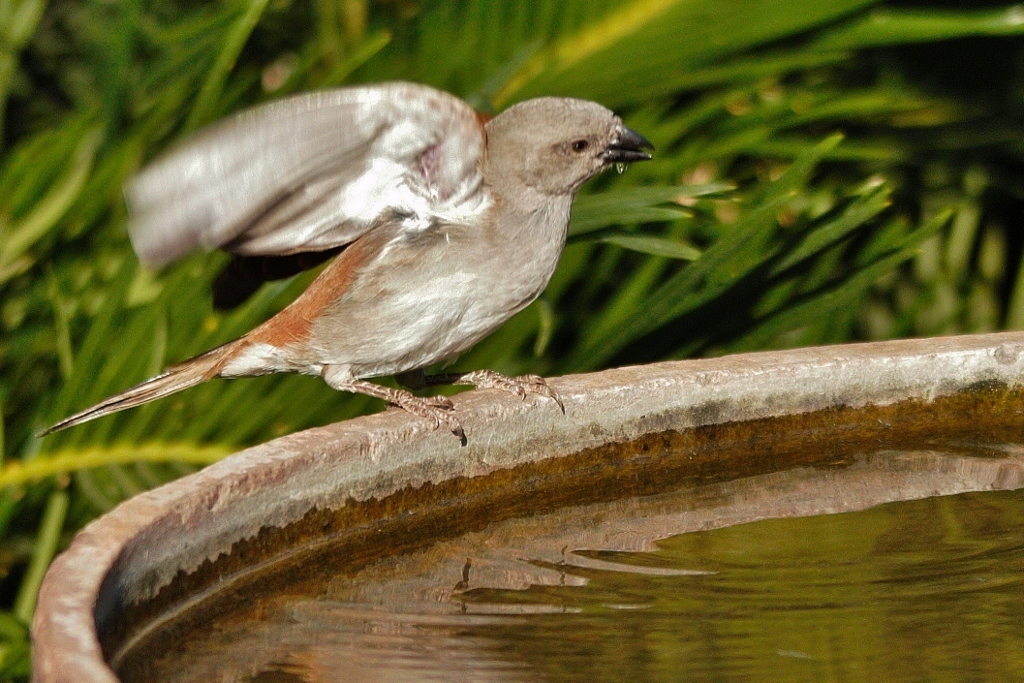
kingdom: Animalia
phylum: Chordata
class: Aves
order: Passeriformes
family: Passeridae
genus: Passer
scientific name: Passer diffusus
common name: Southern grey-headed sparrow
